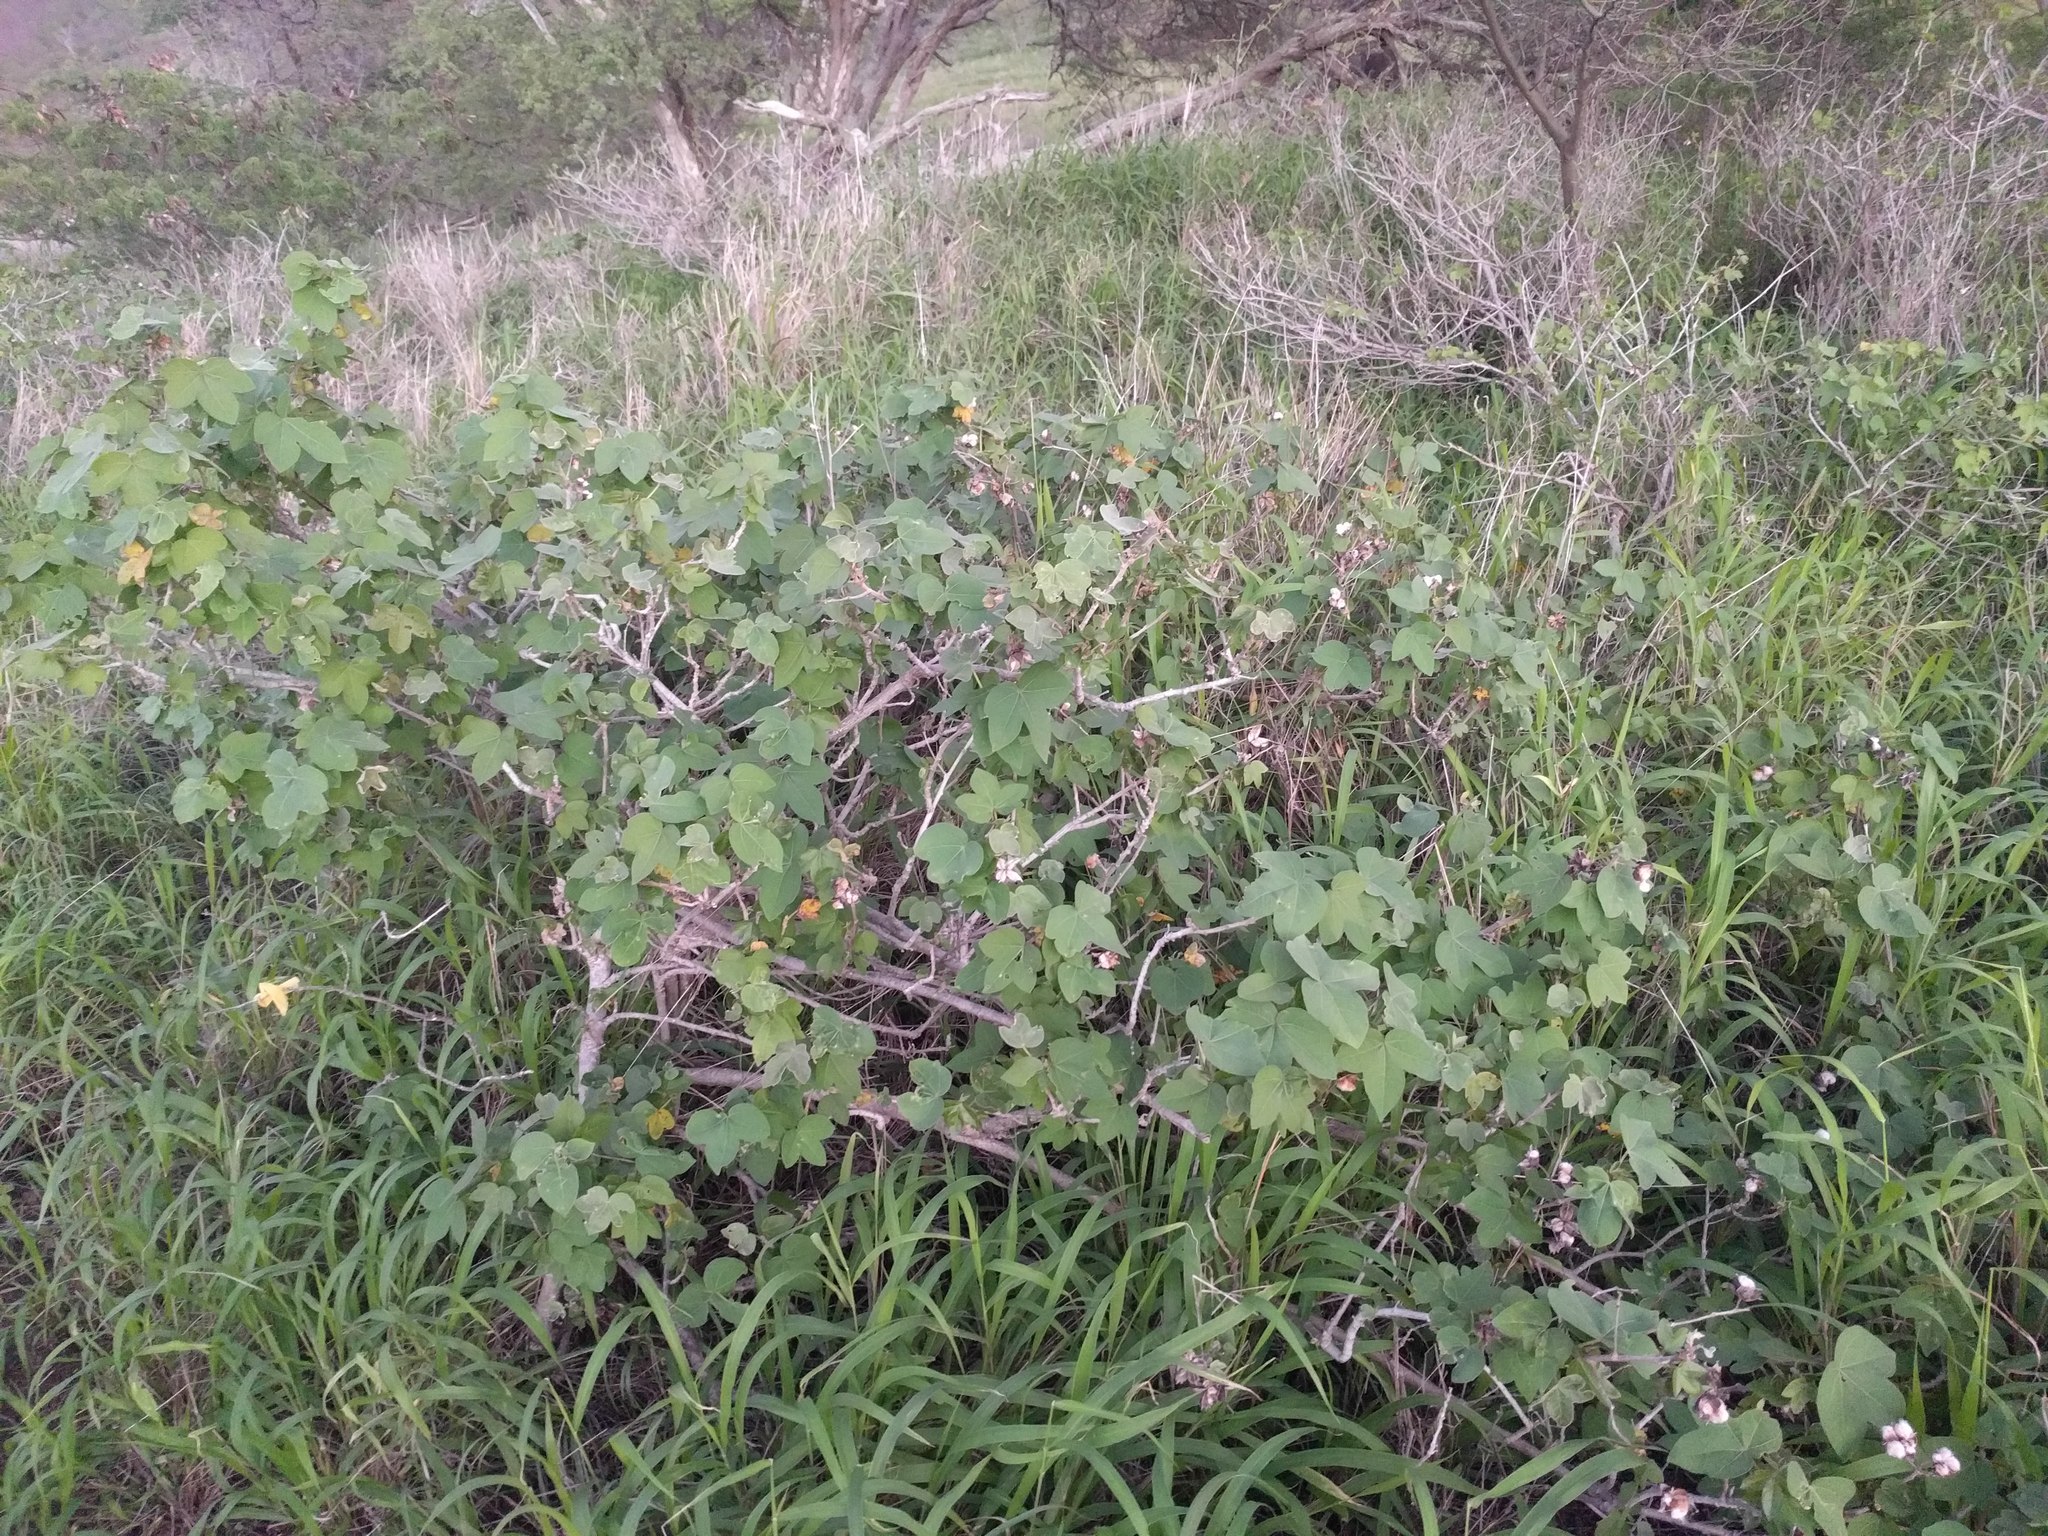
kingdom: Plantae
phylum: Tracheophyta
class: Magnoliopsida
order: Malvales
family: Malvaceae
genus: Gossypium
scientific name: Gossypium tomentosum
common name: Hawaiian cotton
